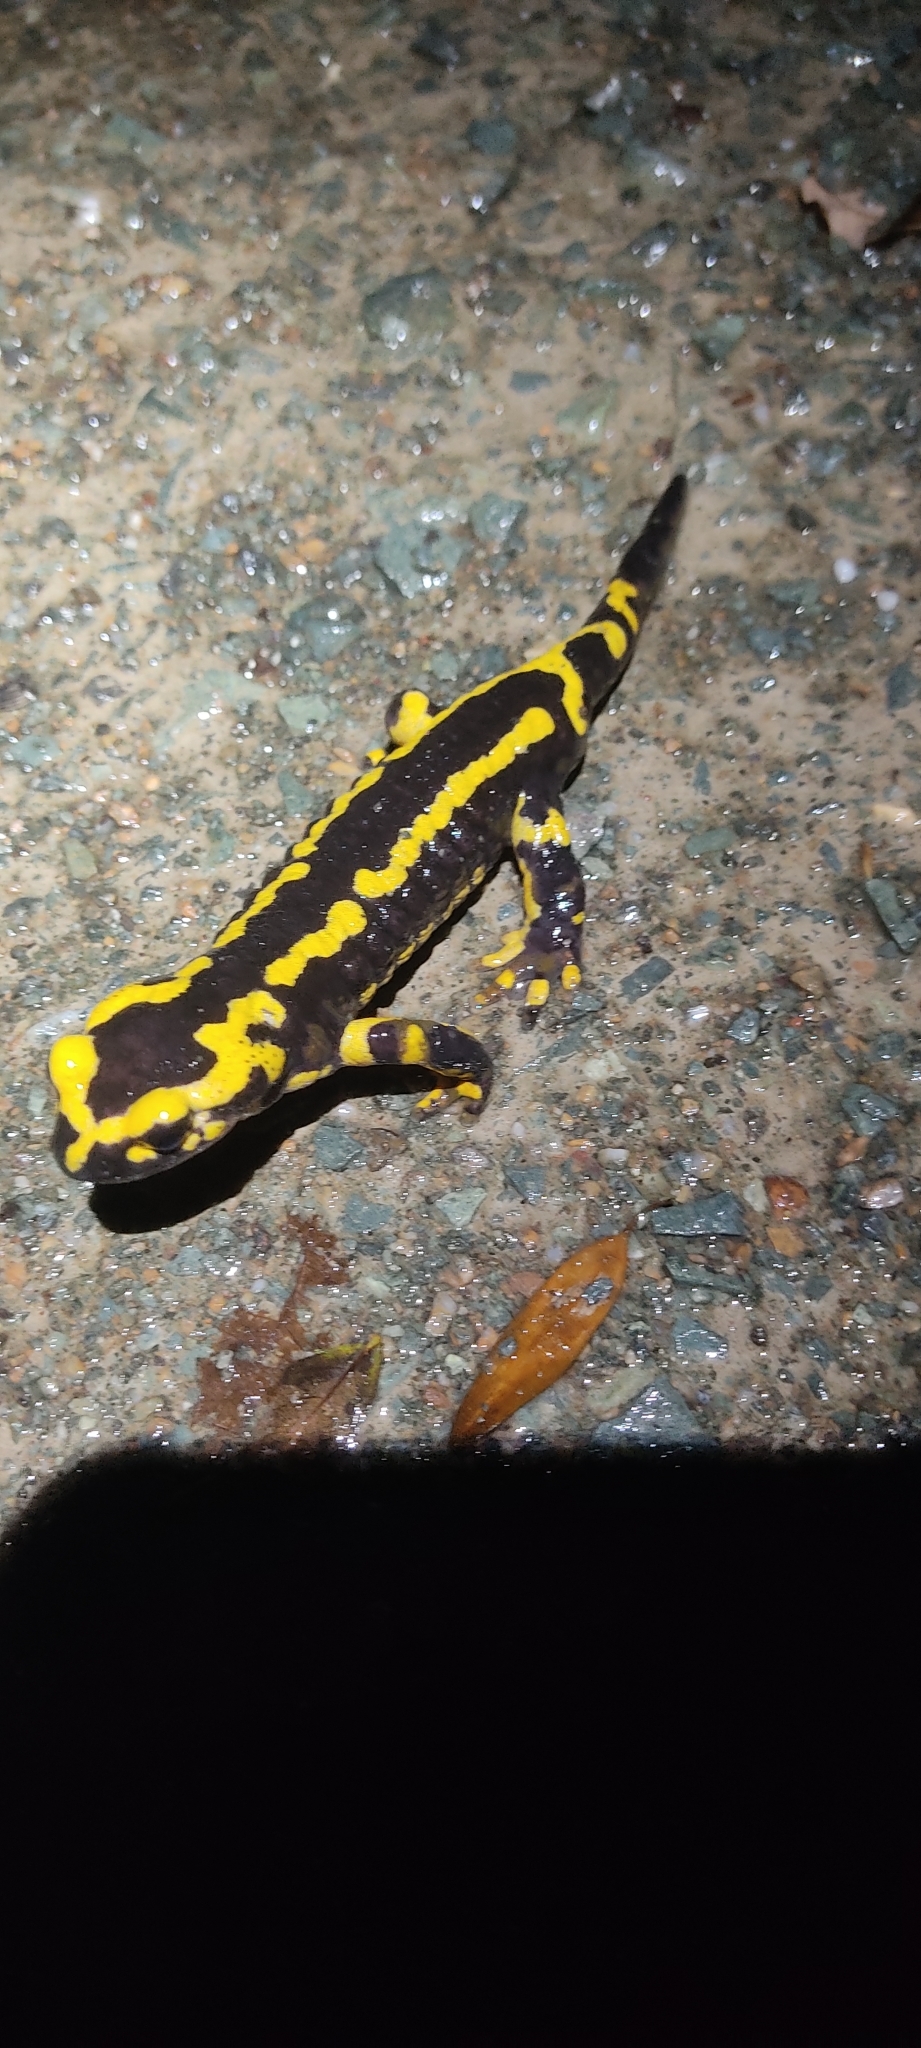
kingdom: Animalia
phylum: Chordata
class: Amphibia
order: Caudata
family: Salamandridae
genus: Salamandra
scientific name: Salamandra salamandra
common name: Fire salamander
